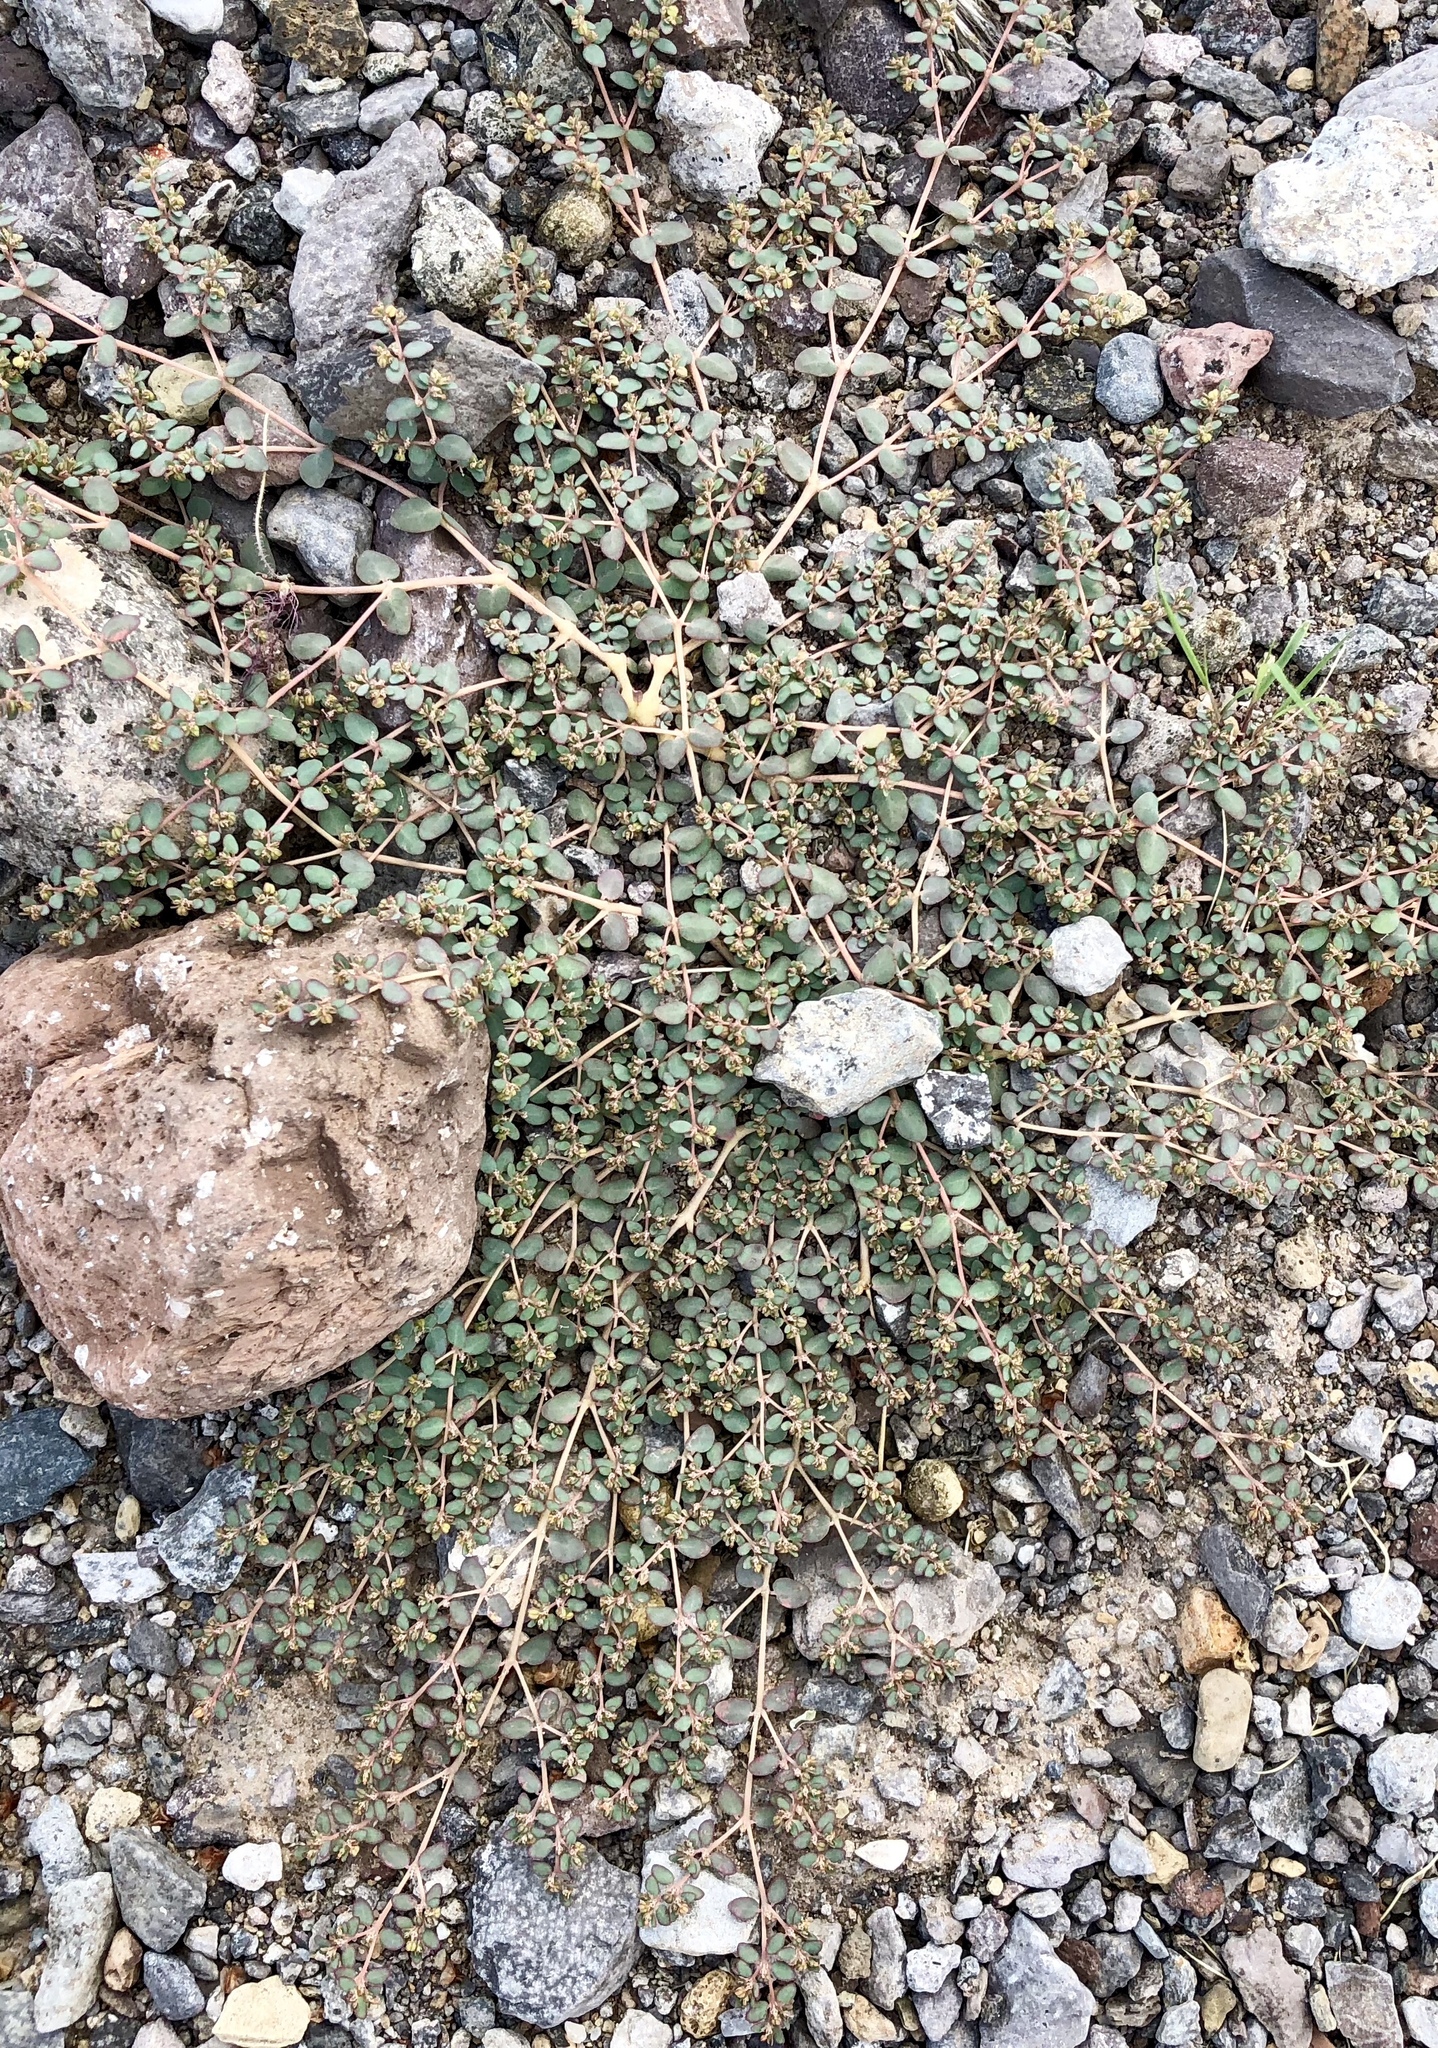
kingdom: Plantae
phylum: Tracheophyta
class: Magnoliopsida
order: Malpighiales
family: Euphorbiaceae
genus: Euphorbia
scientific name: Euphorbia micromera
